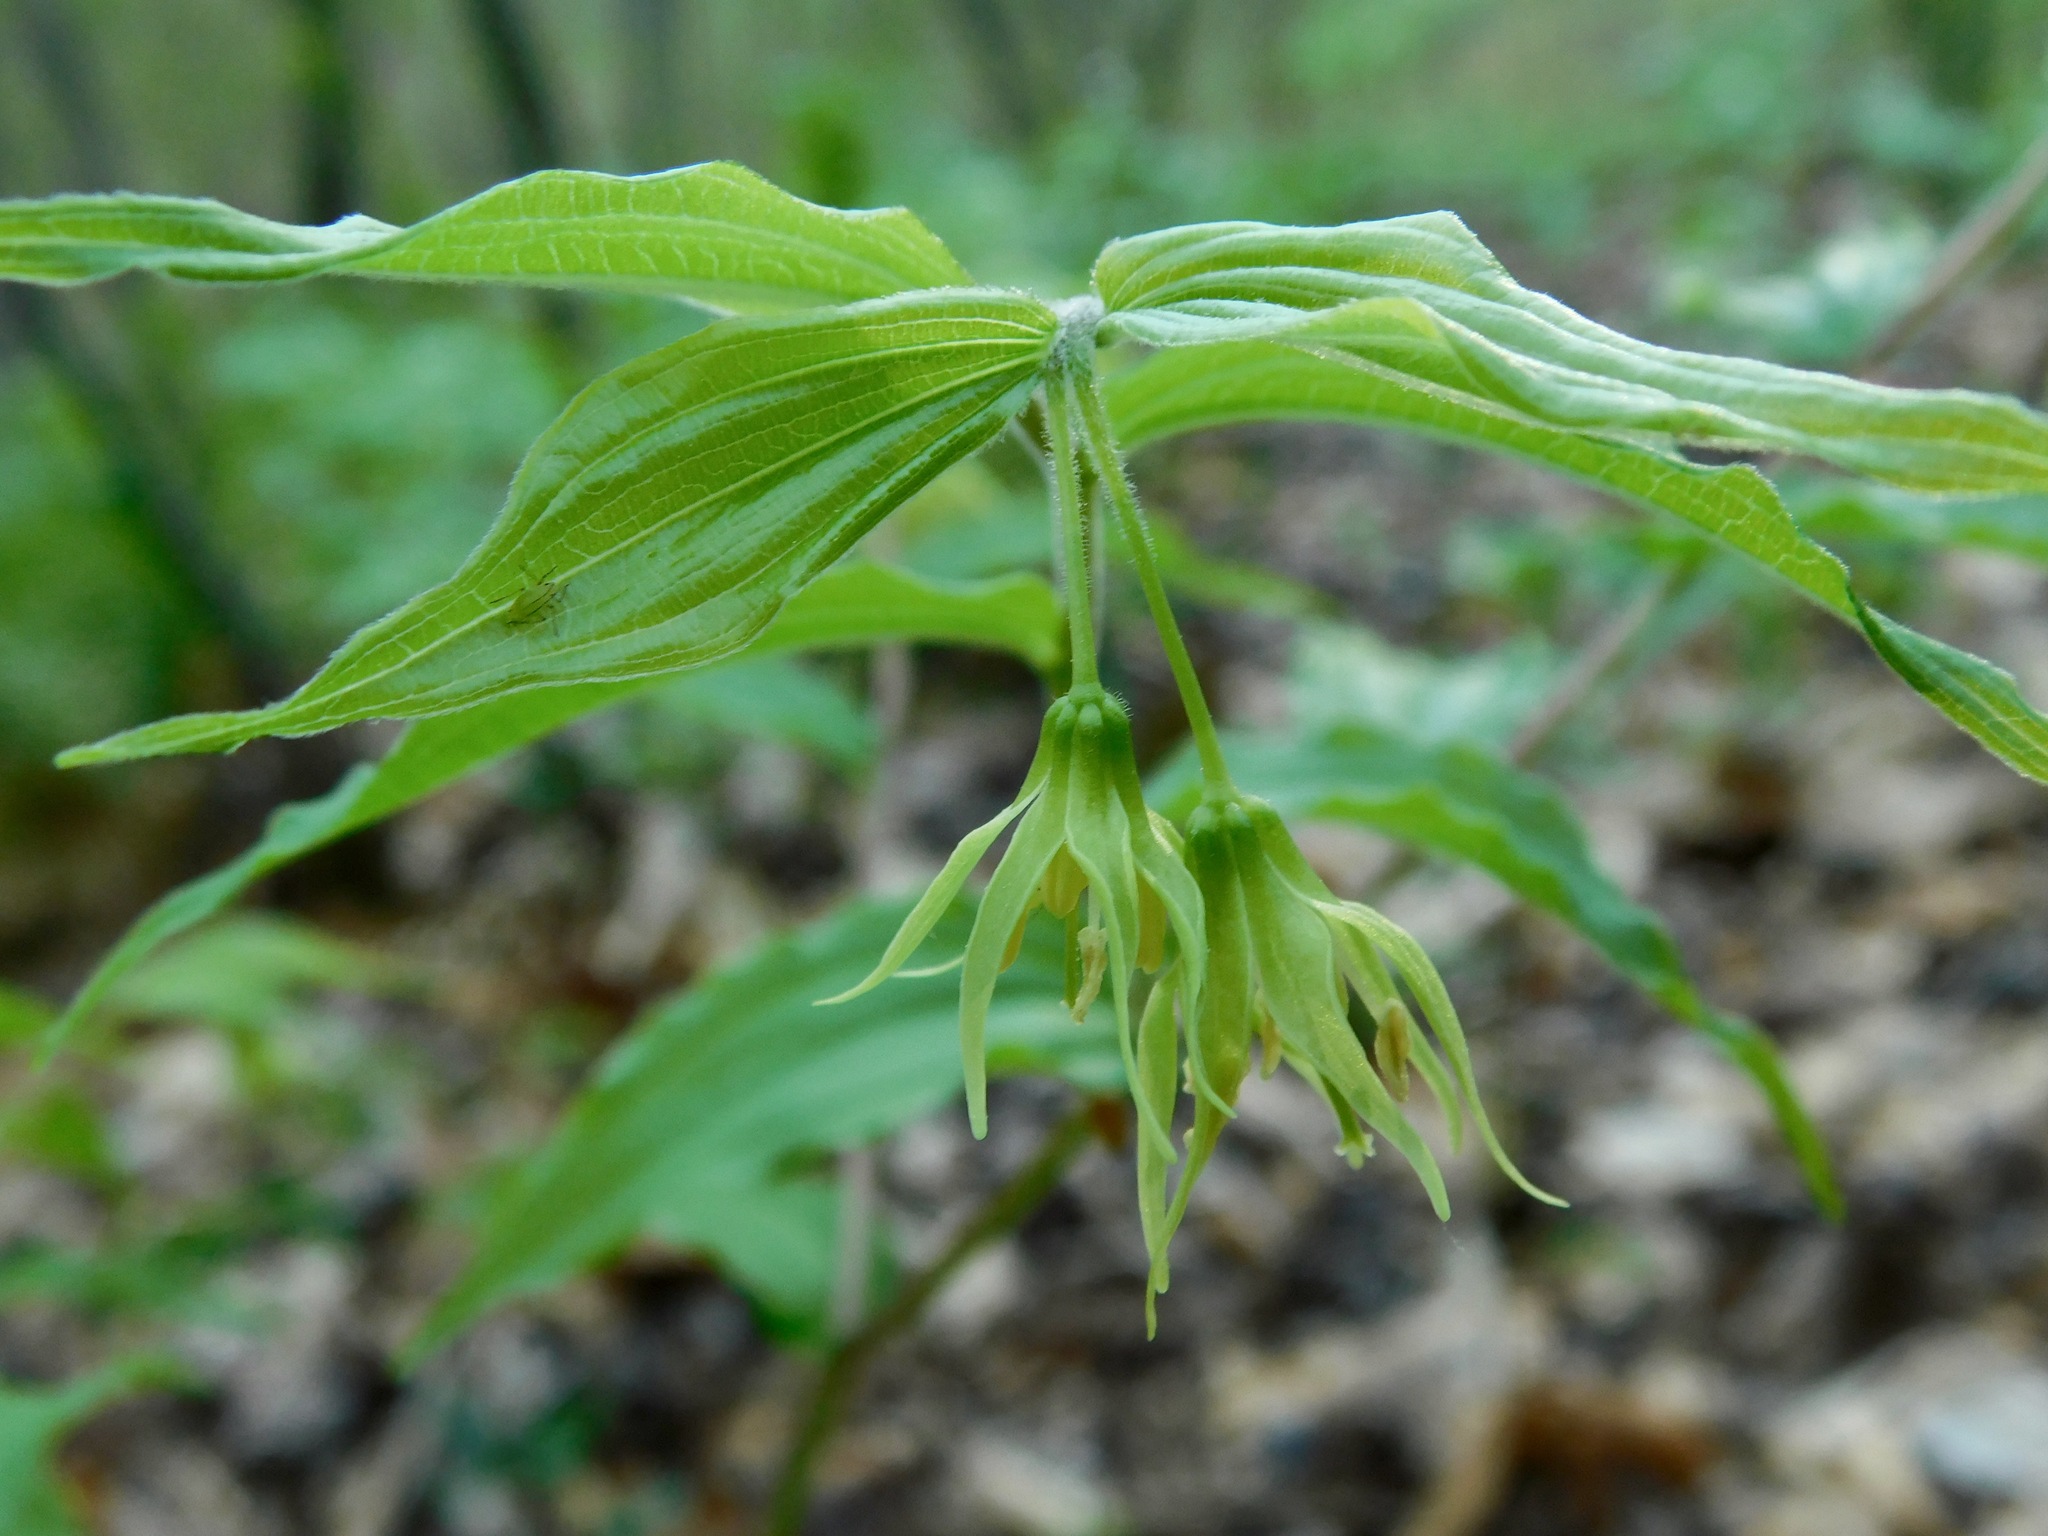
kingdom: Plantae
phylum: Tracheophyta
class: Liliopsida
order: Liliales
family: Liliaceae
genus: Prosartes
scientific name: Prosartes lanuginosa
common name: Hairy mandarin
